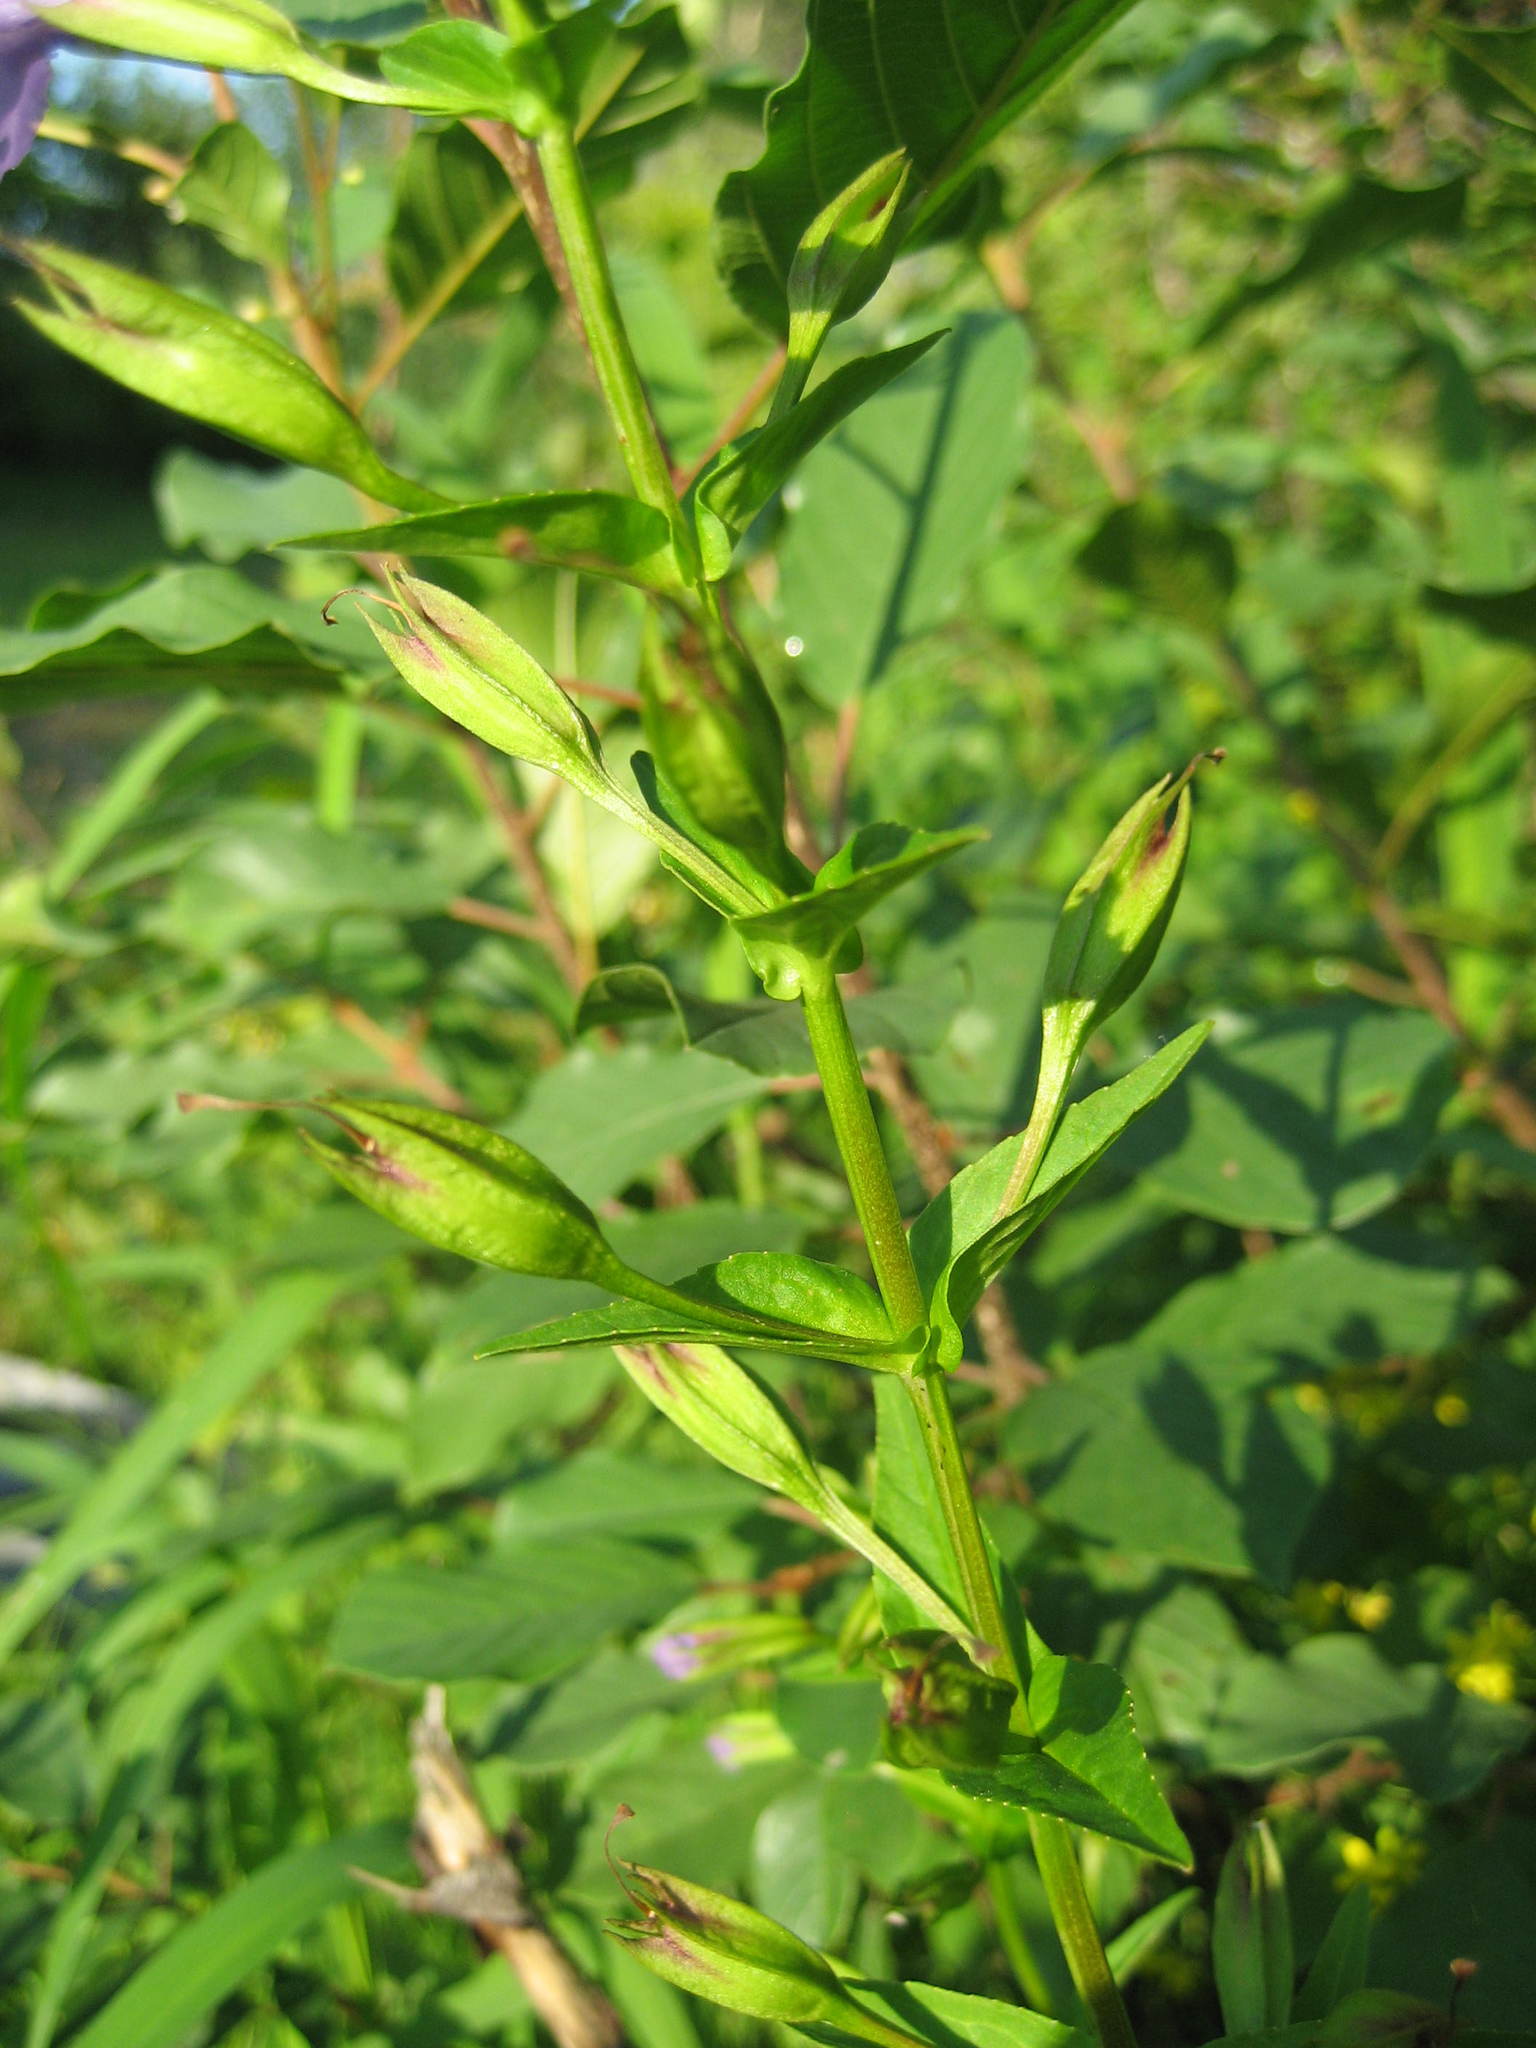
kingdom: Plantae
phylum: Tracheophyta
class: Magnoliopsida
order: Lamiales
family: Phrymaceae
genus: Mimulus
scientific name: Mimulus ringens
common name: Allegheny monkeyflower
